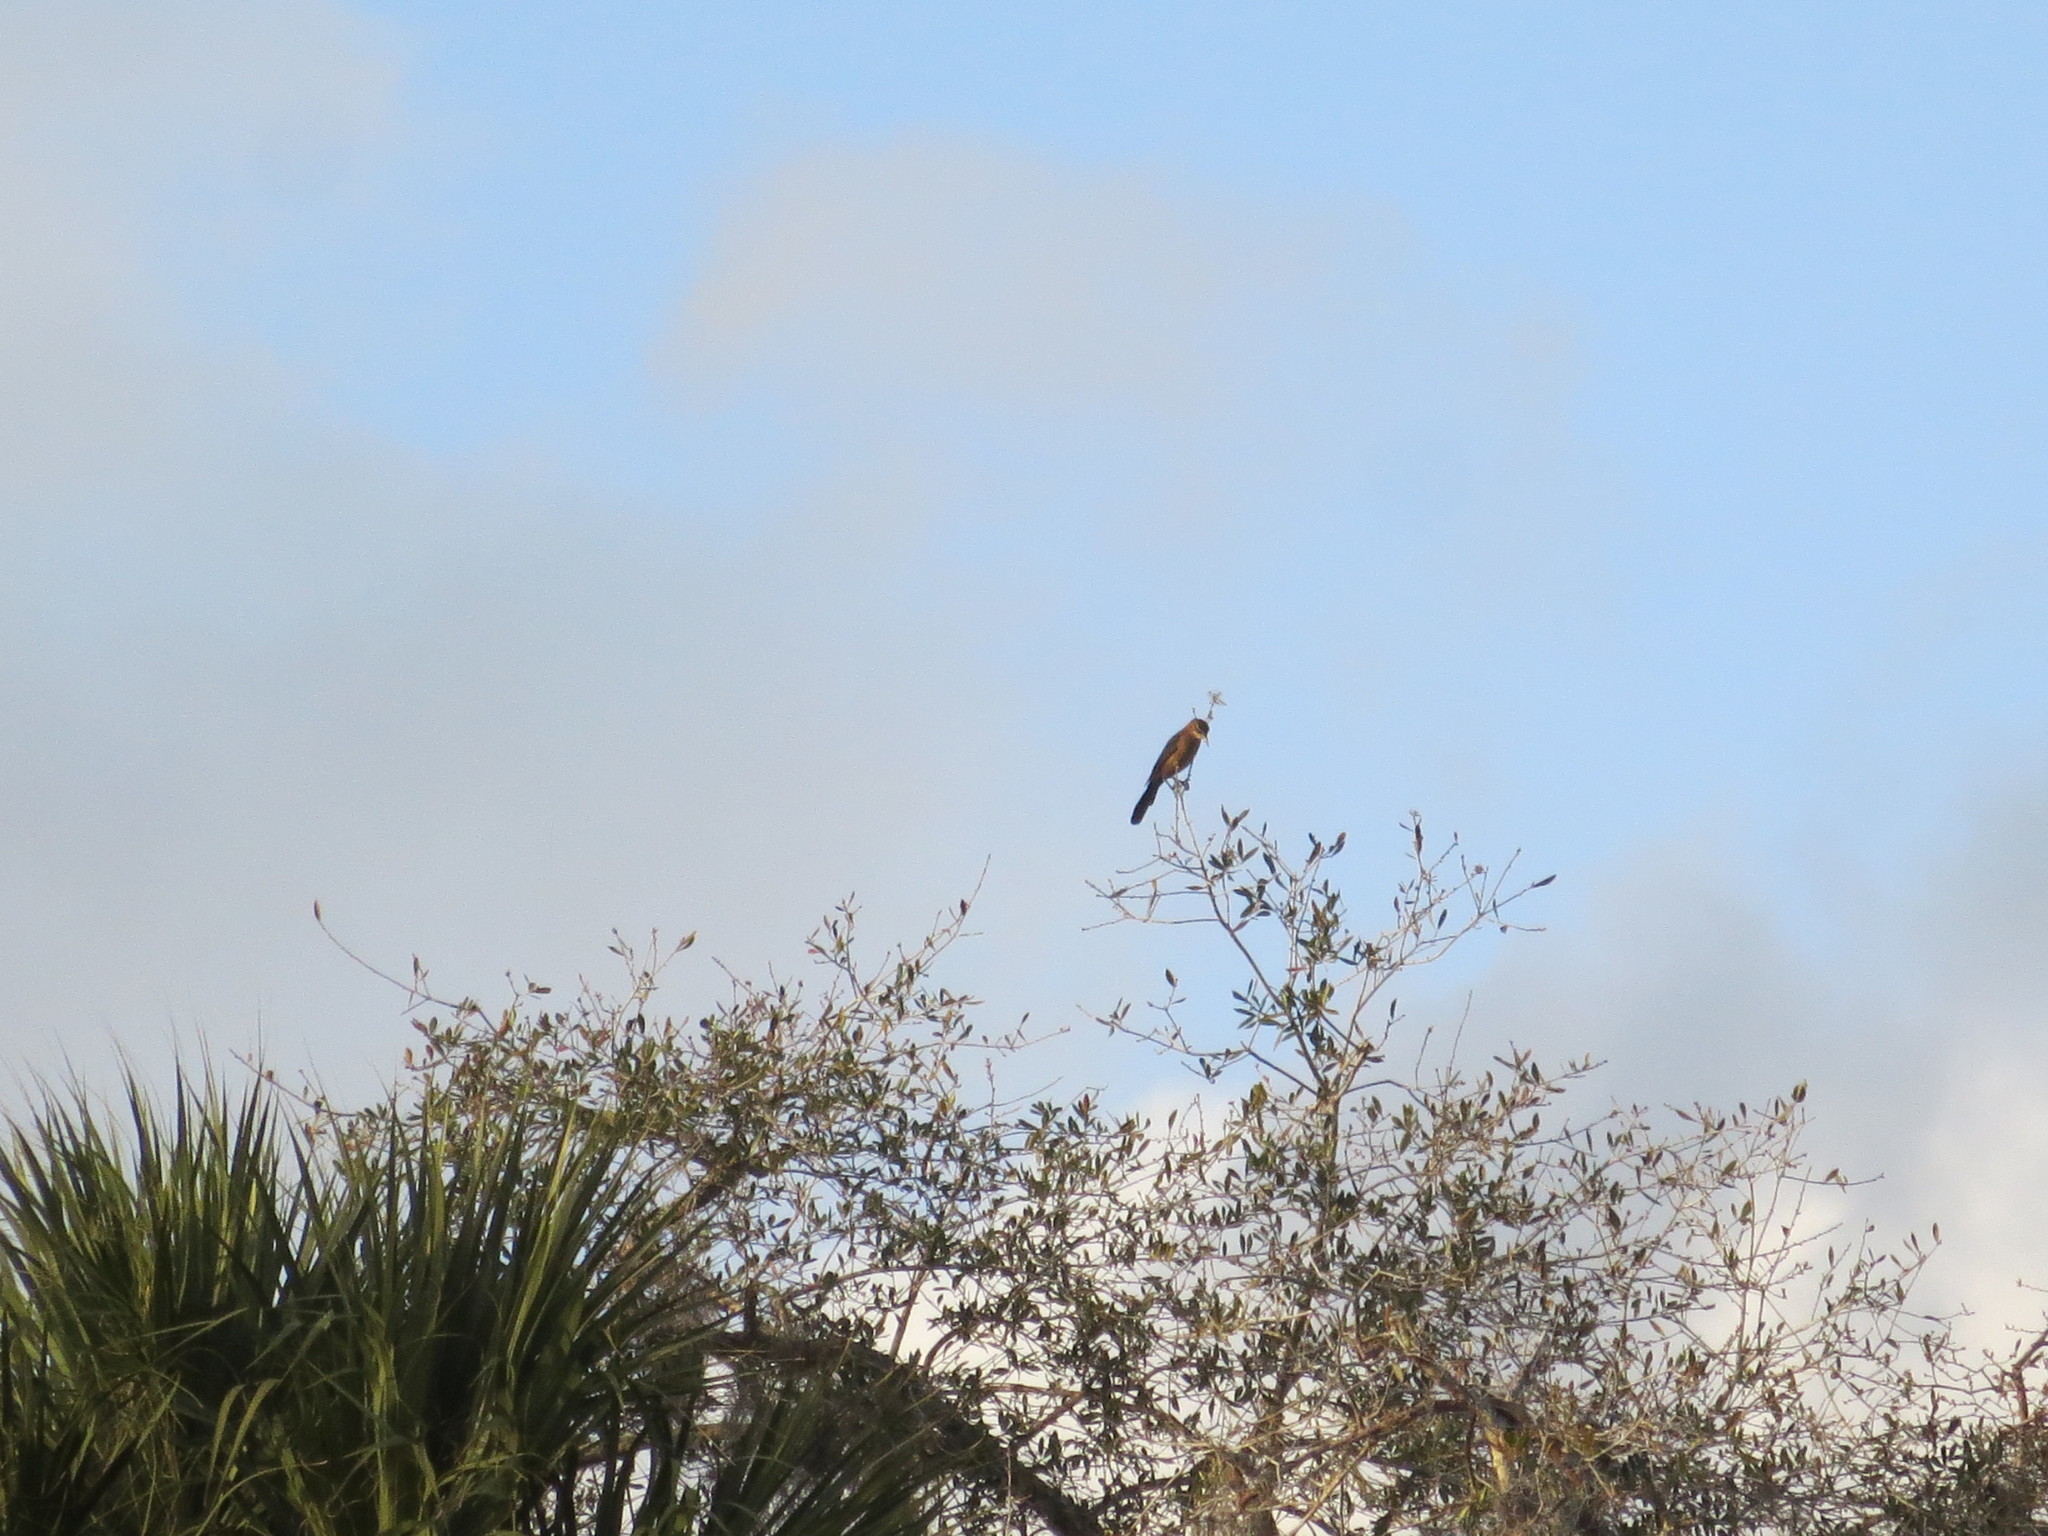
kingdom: Animalia
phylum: Chordata
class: Aves
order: Passeriformes
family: Icteridae
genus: Quiscalus
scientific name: Quiscalus major
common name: Boat-tailed grackle
